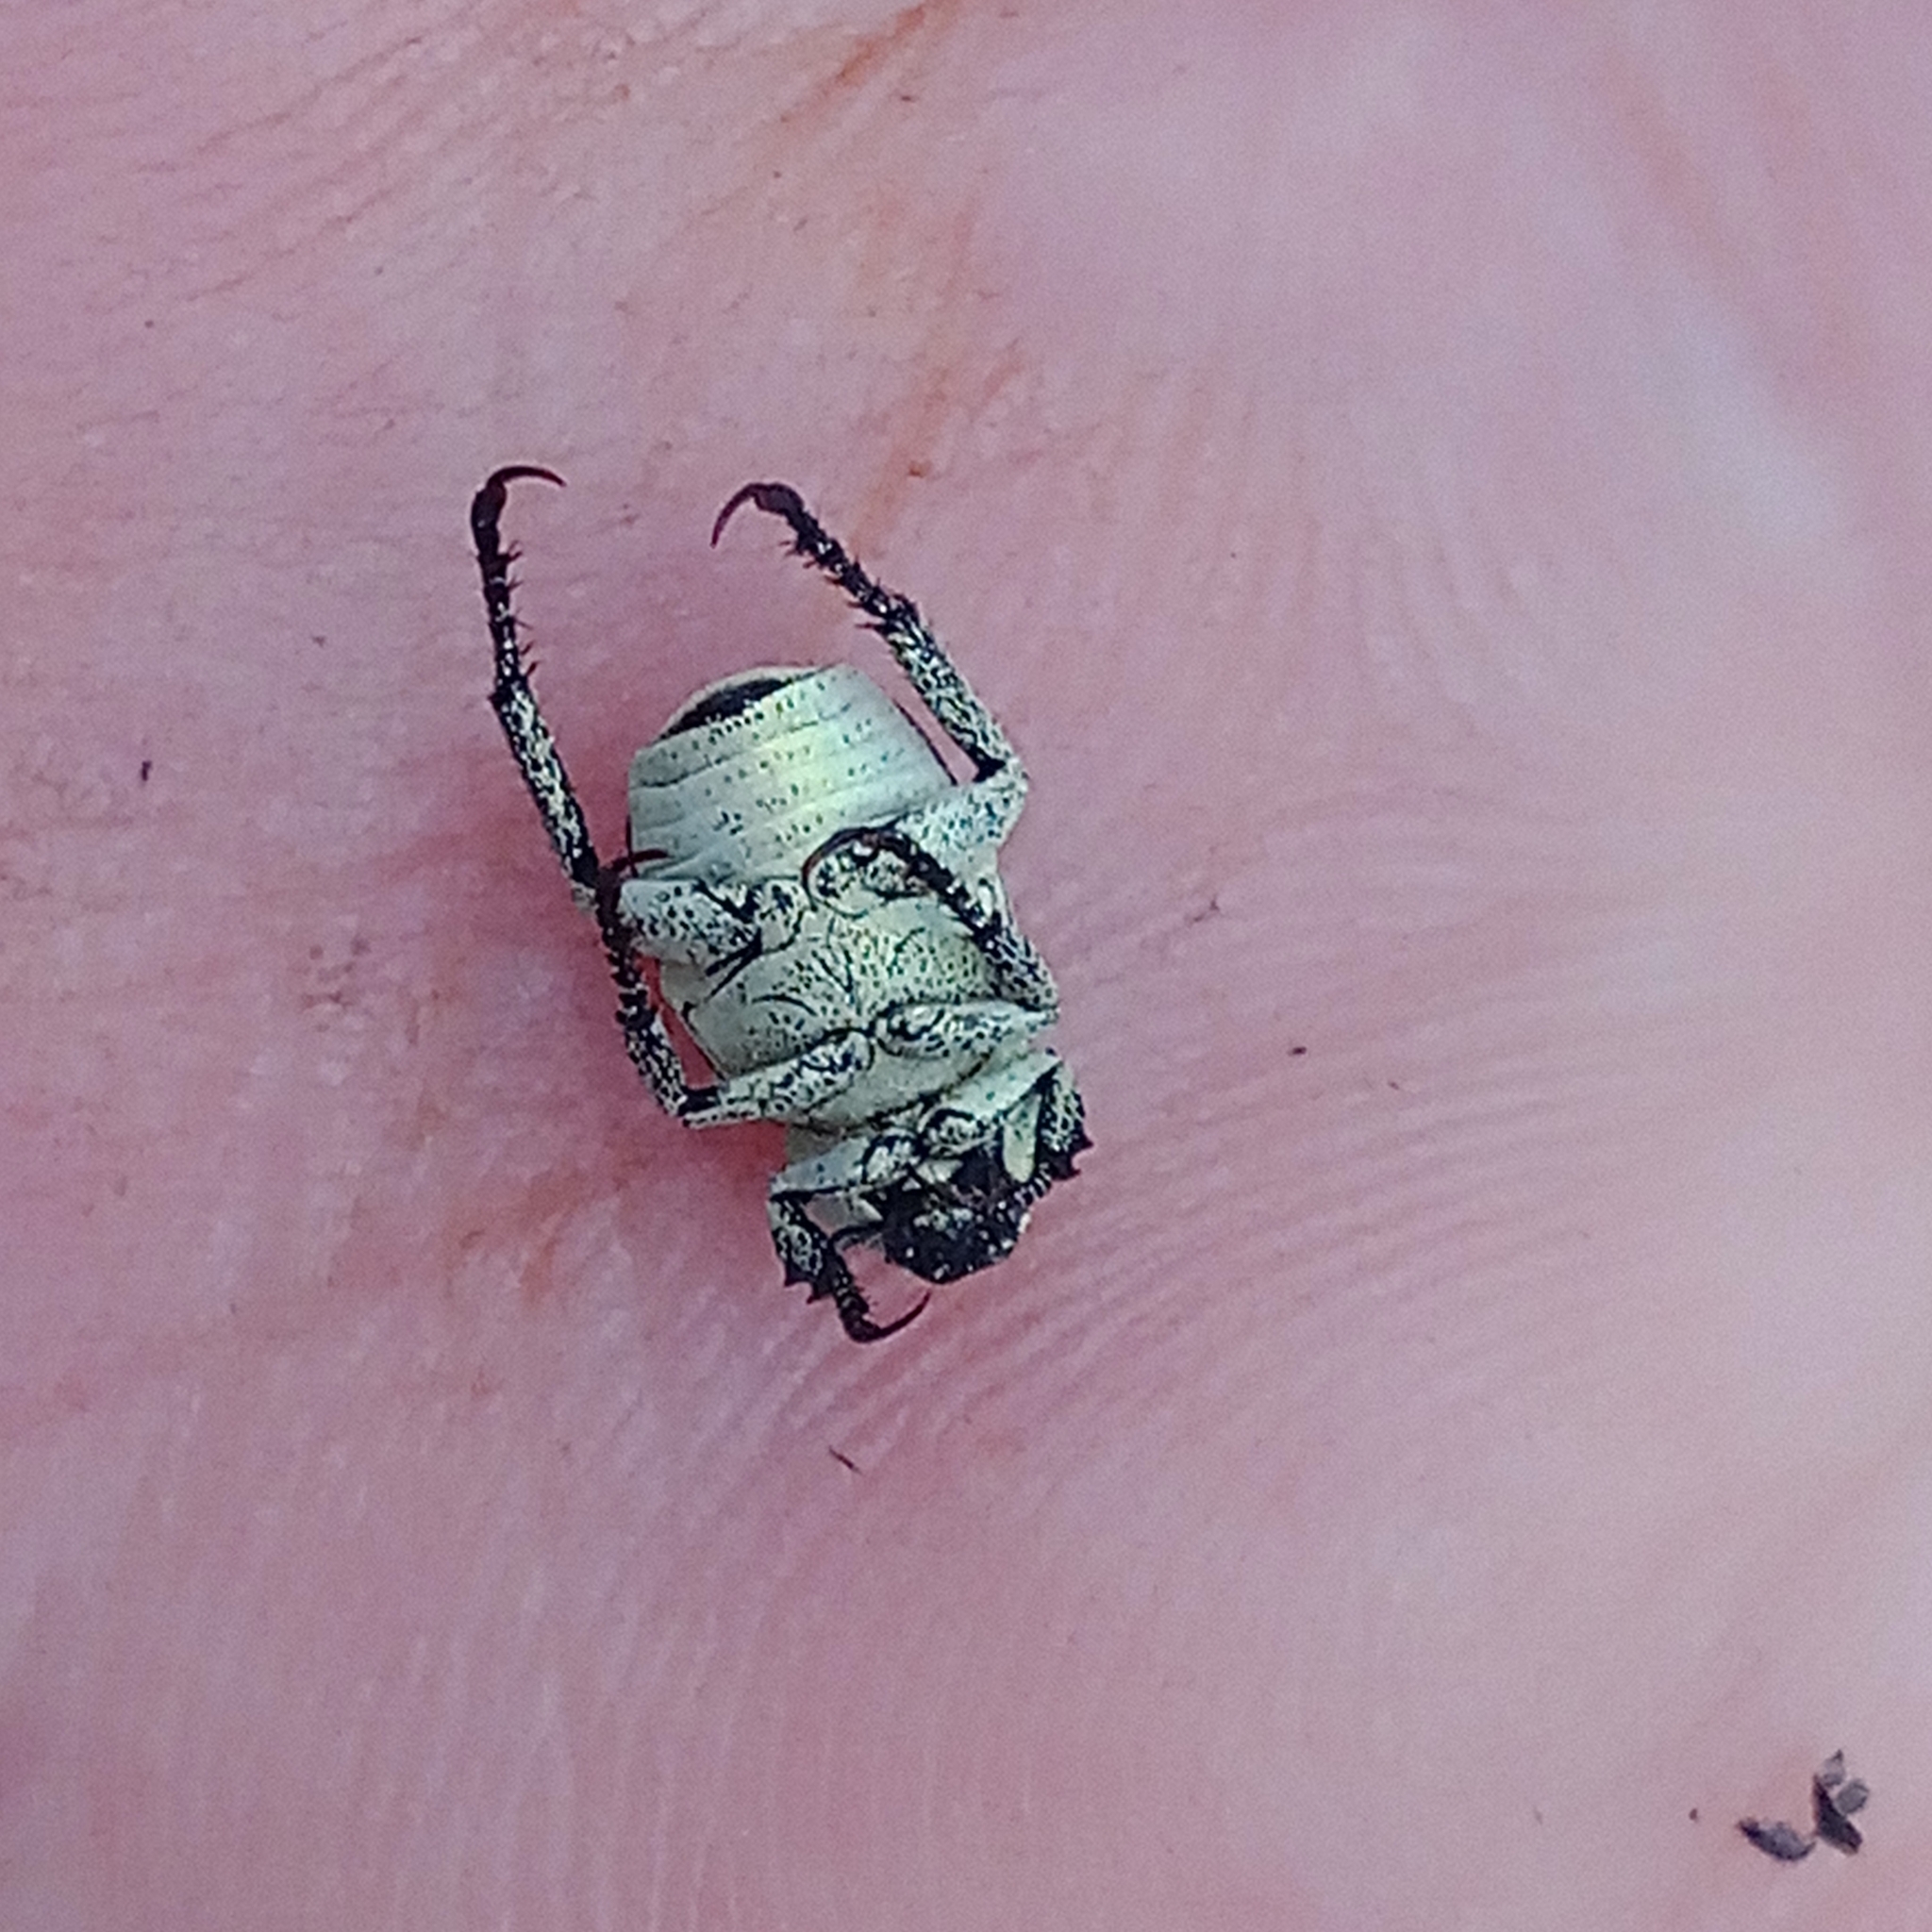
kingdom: Animalia
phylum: Arthropoda
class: Insecta
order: Coleoptera
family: Scarabaeidae
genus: Hoplia
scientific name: Hoplia parvula
